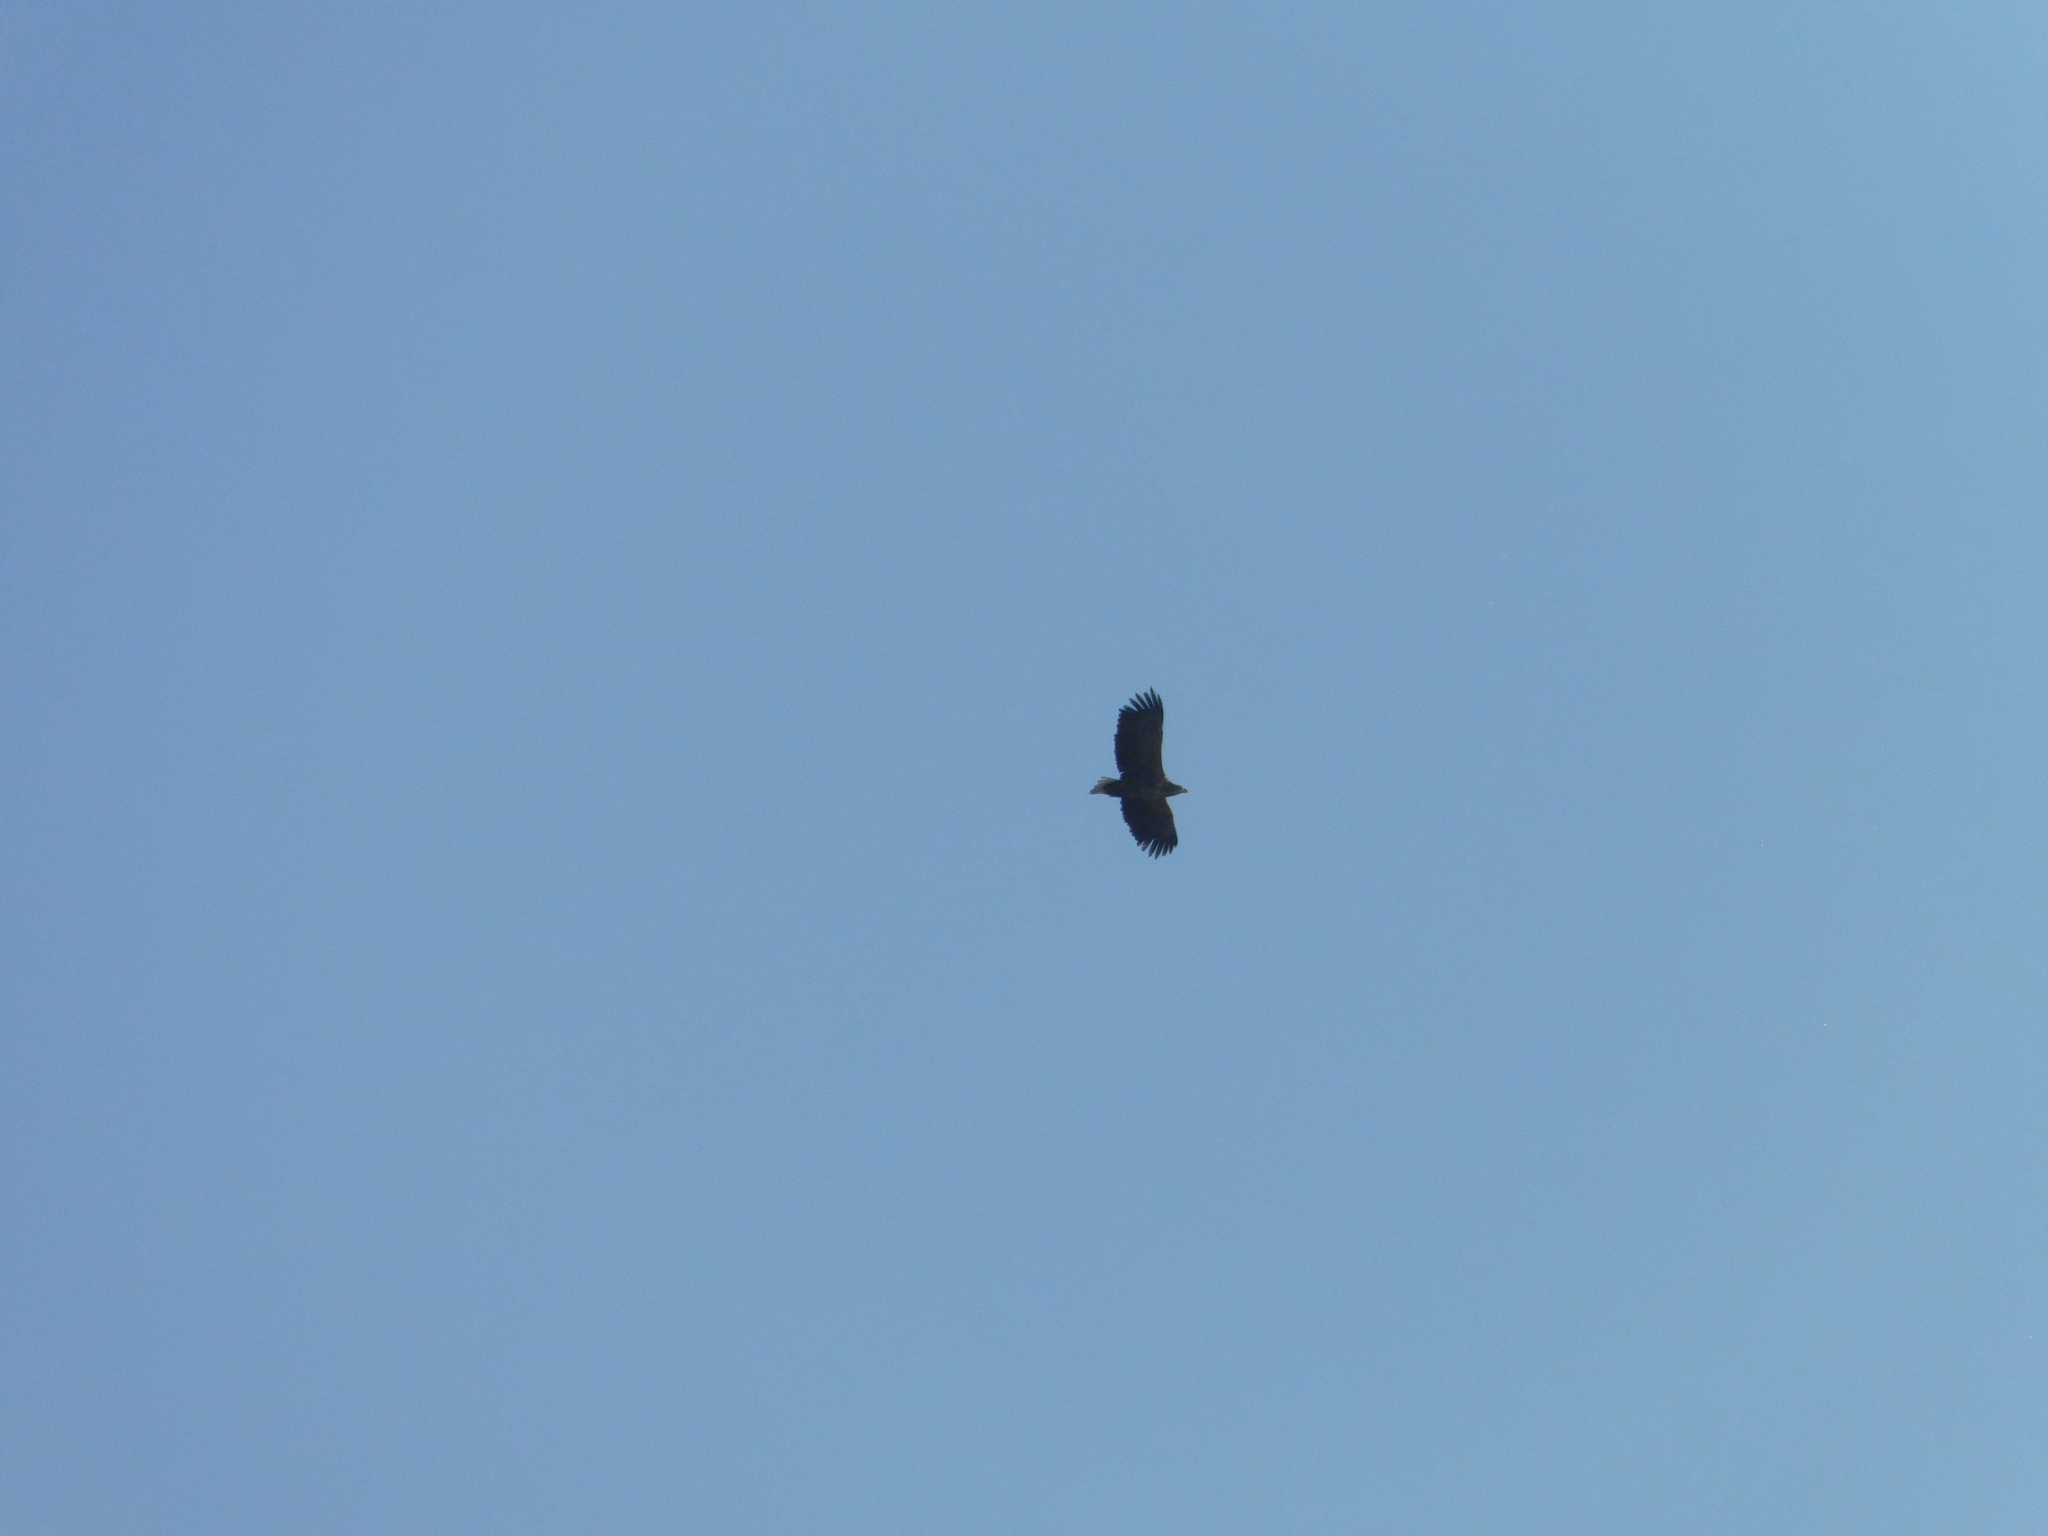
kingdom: Animalia
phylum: Chordata
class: Aves
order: Accipitriformes
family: Accipitridae
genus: Haliaeetus
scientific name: Haliaeetus albicilla
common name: White-tailed eagle
